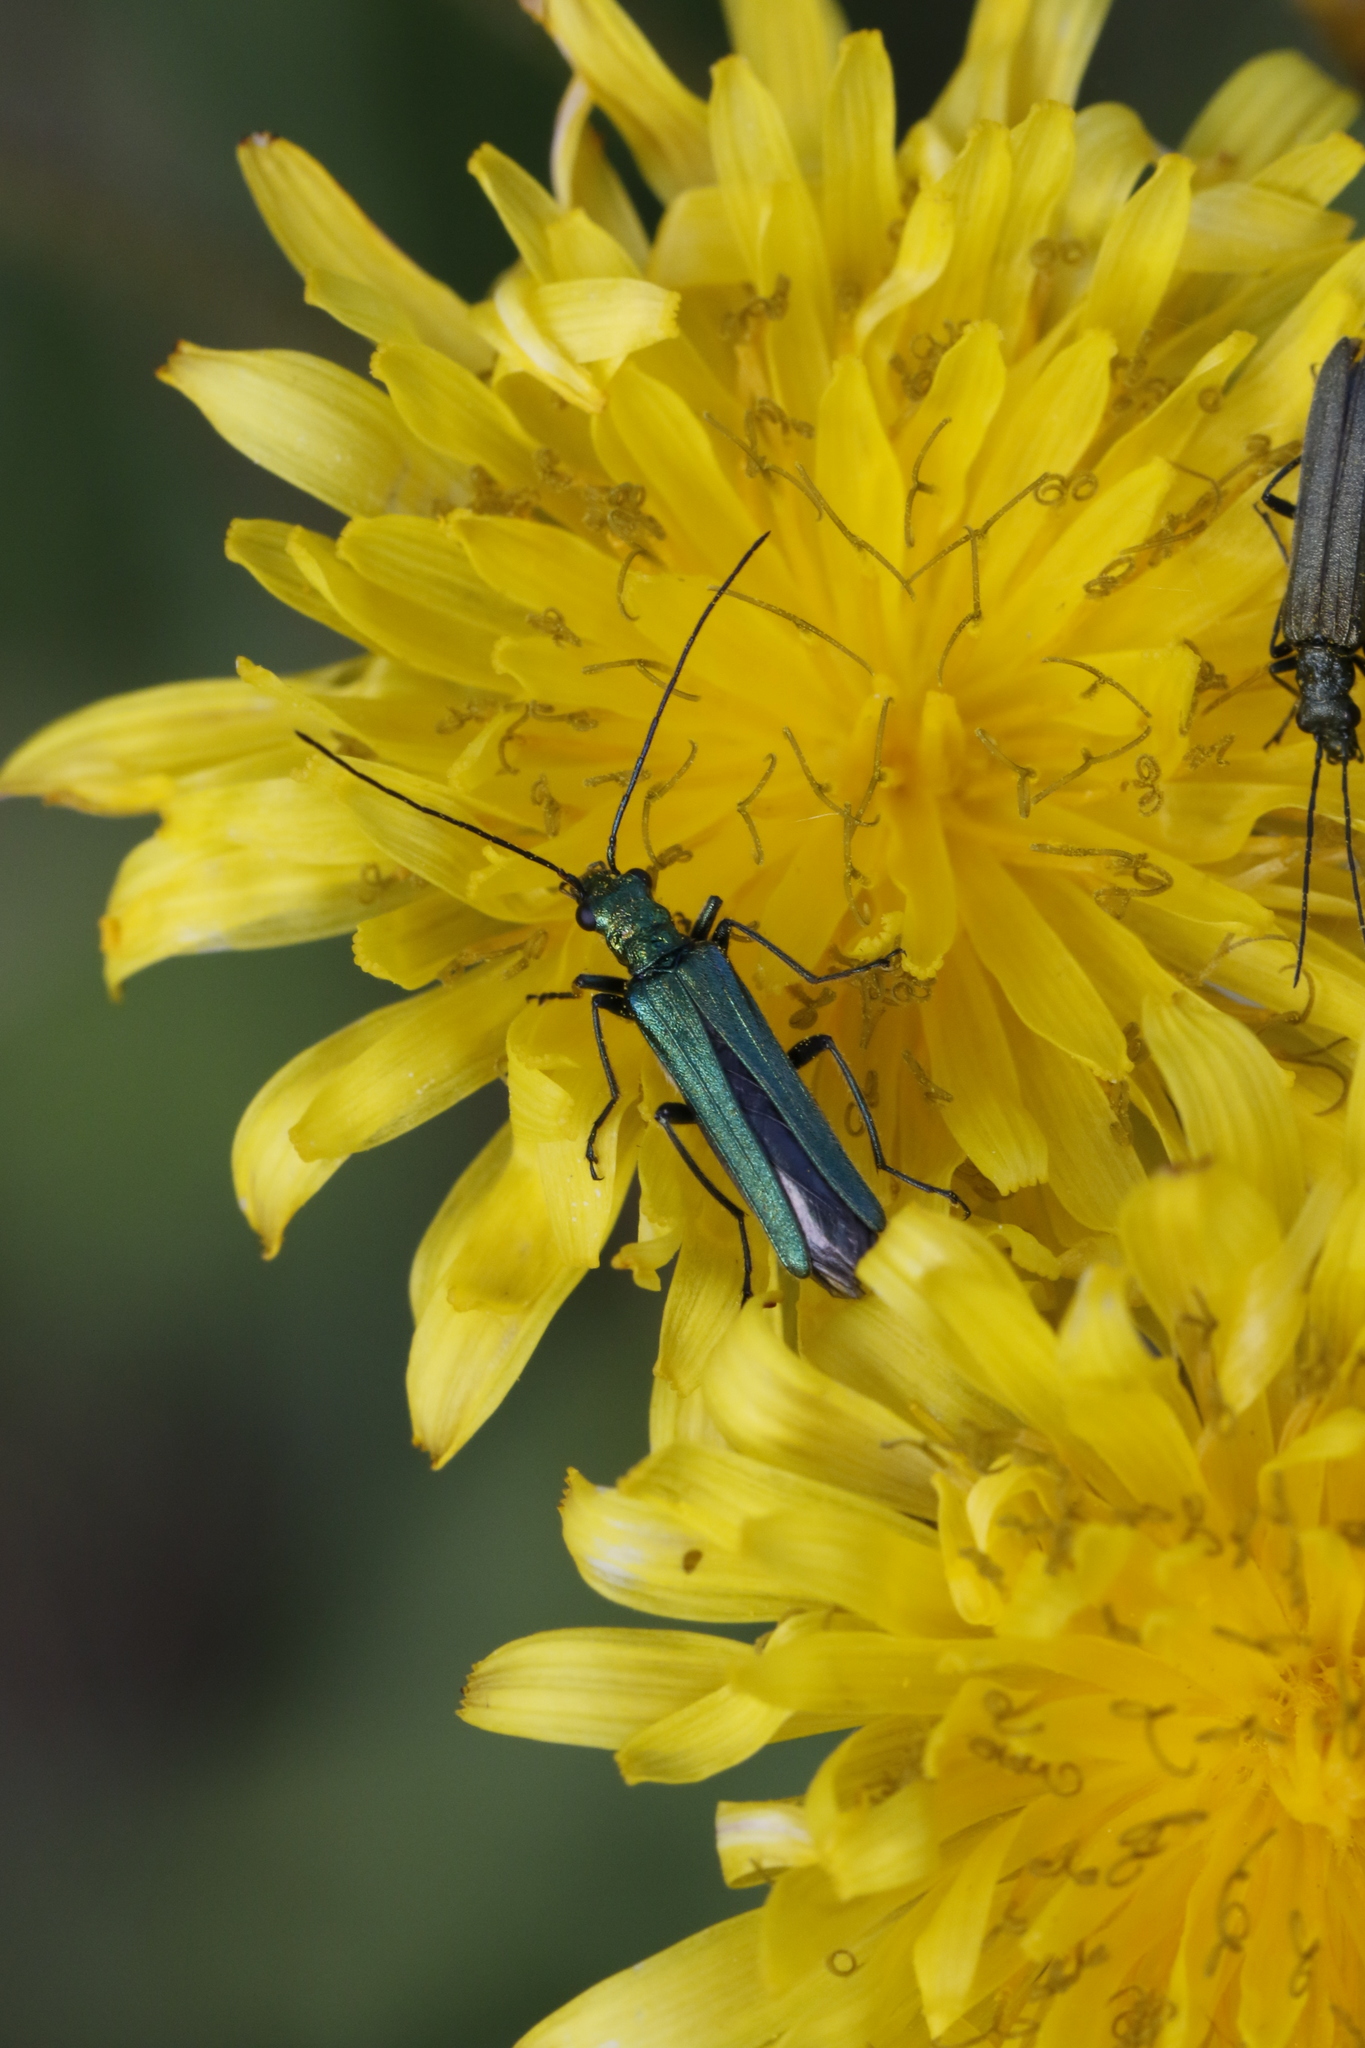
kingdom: Animalia
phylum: Arthropoda
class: Insecta
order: Coleoptera
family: Oedemeridae
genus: Oedemera
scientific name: Oedemera nobilis
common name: Swollen-thighed beetle
